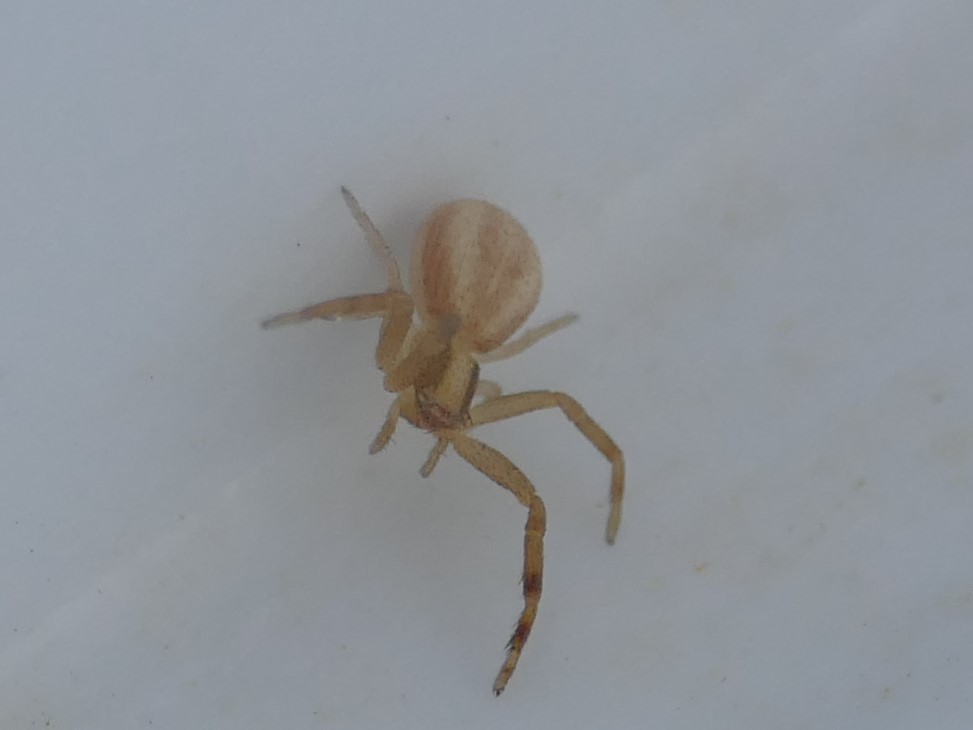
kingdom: Animalia
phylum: Arthropoda
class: Arachnida
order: Araneae
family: Thomisidae
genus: Runcinia
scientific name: Runcinia grammica
